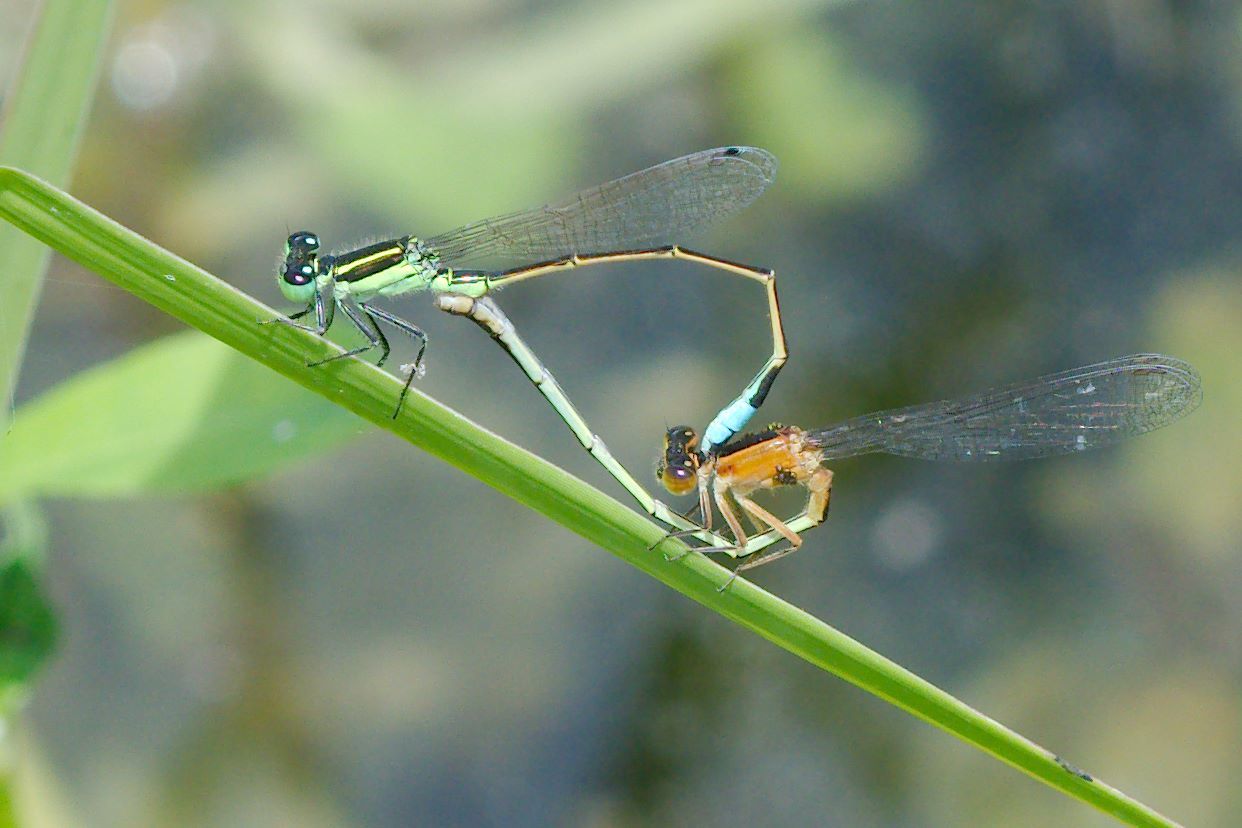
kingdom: Animalia
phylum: Arthropoda
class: Insecta
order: Odonata
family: Coenagrionidae
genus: Ischnura
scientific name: Ischnura ramburii
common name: Rambur's forktail
